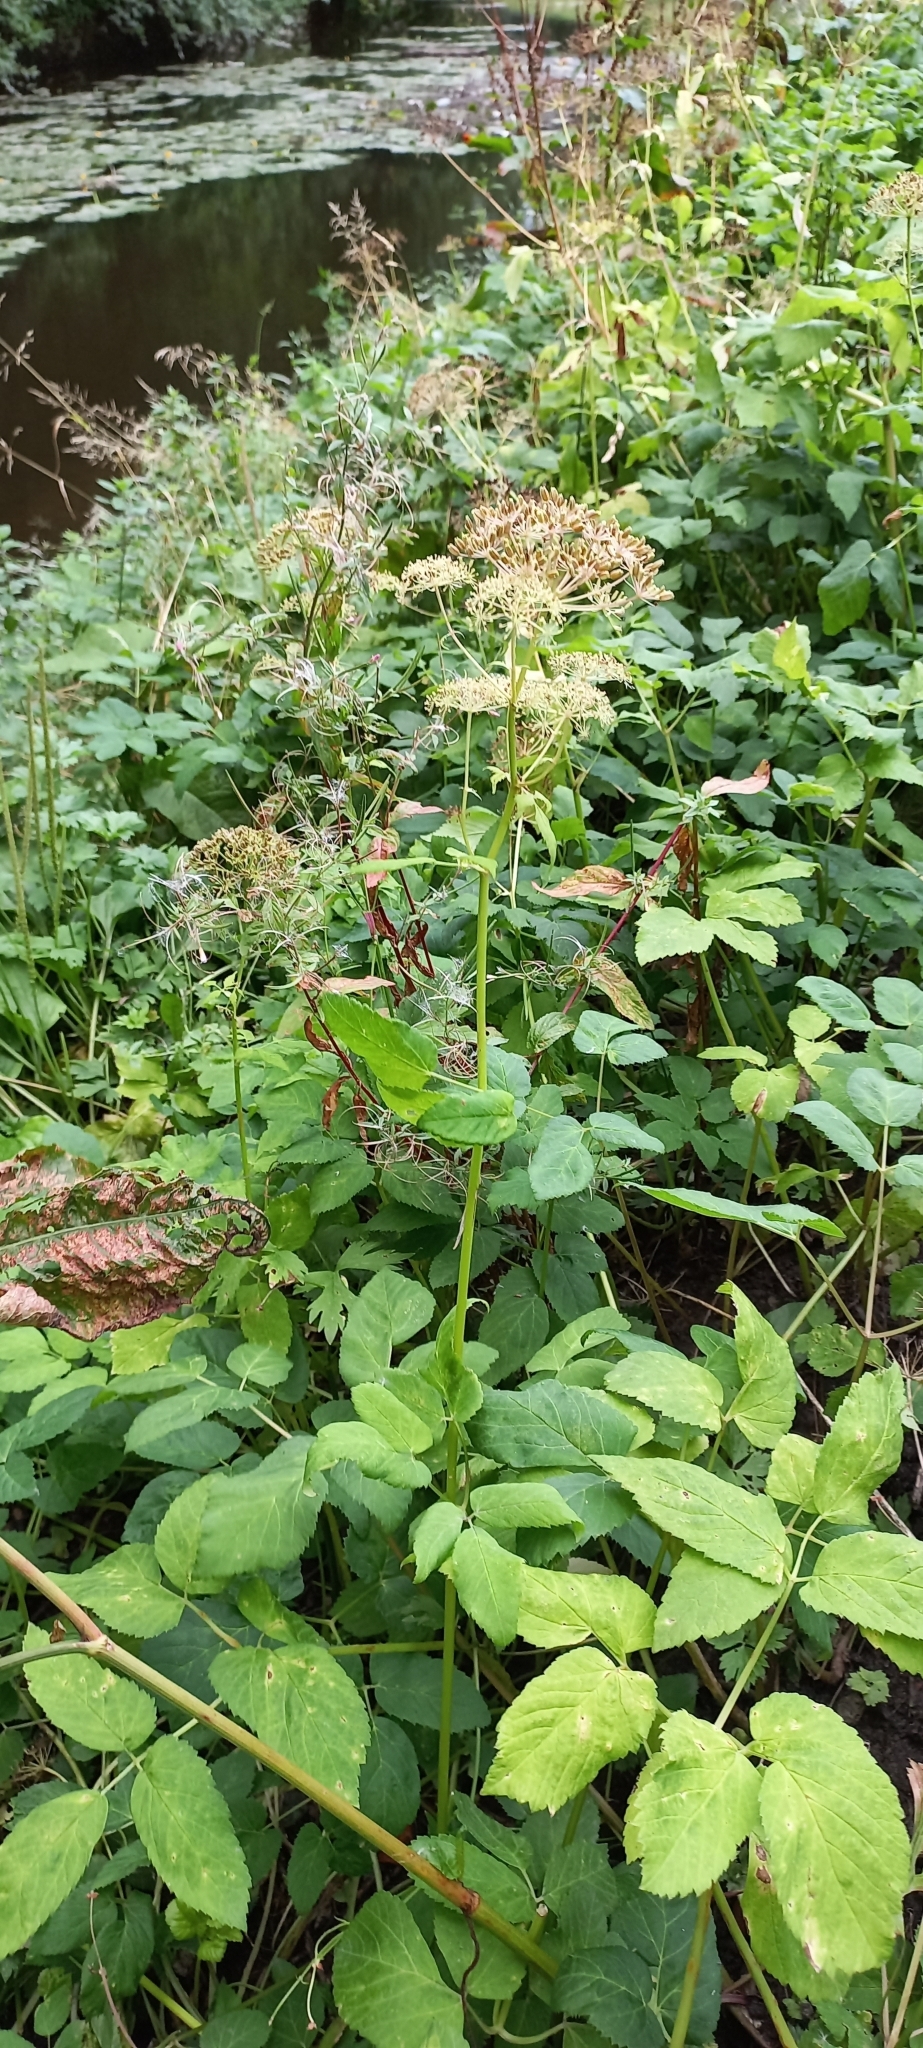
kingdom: Plantae
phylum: Tracheophyta
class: Magnoliopsida
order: Apiales
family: Apiaceae
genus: Aegopodium
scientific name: Aegopodium podagraria
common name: Ground-elder
